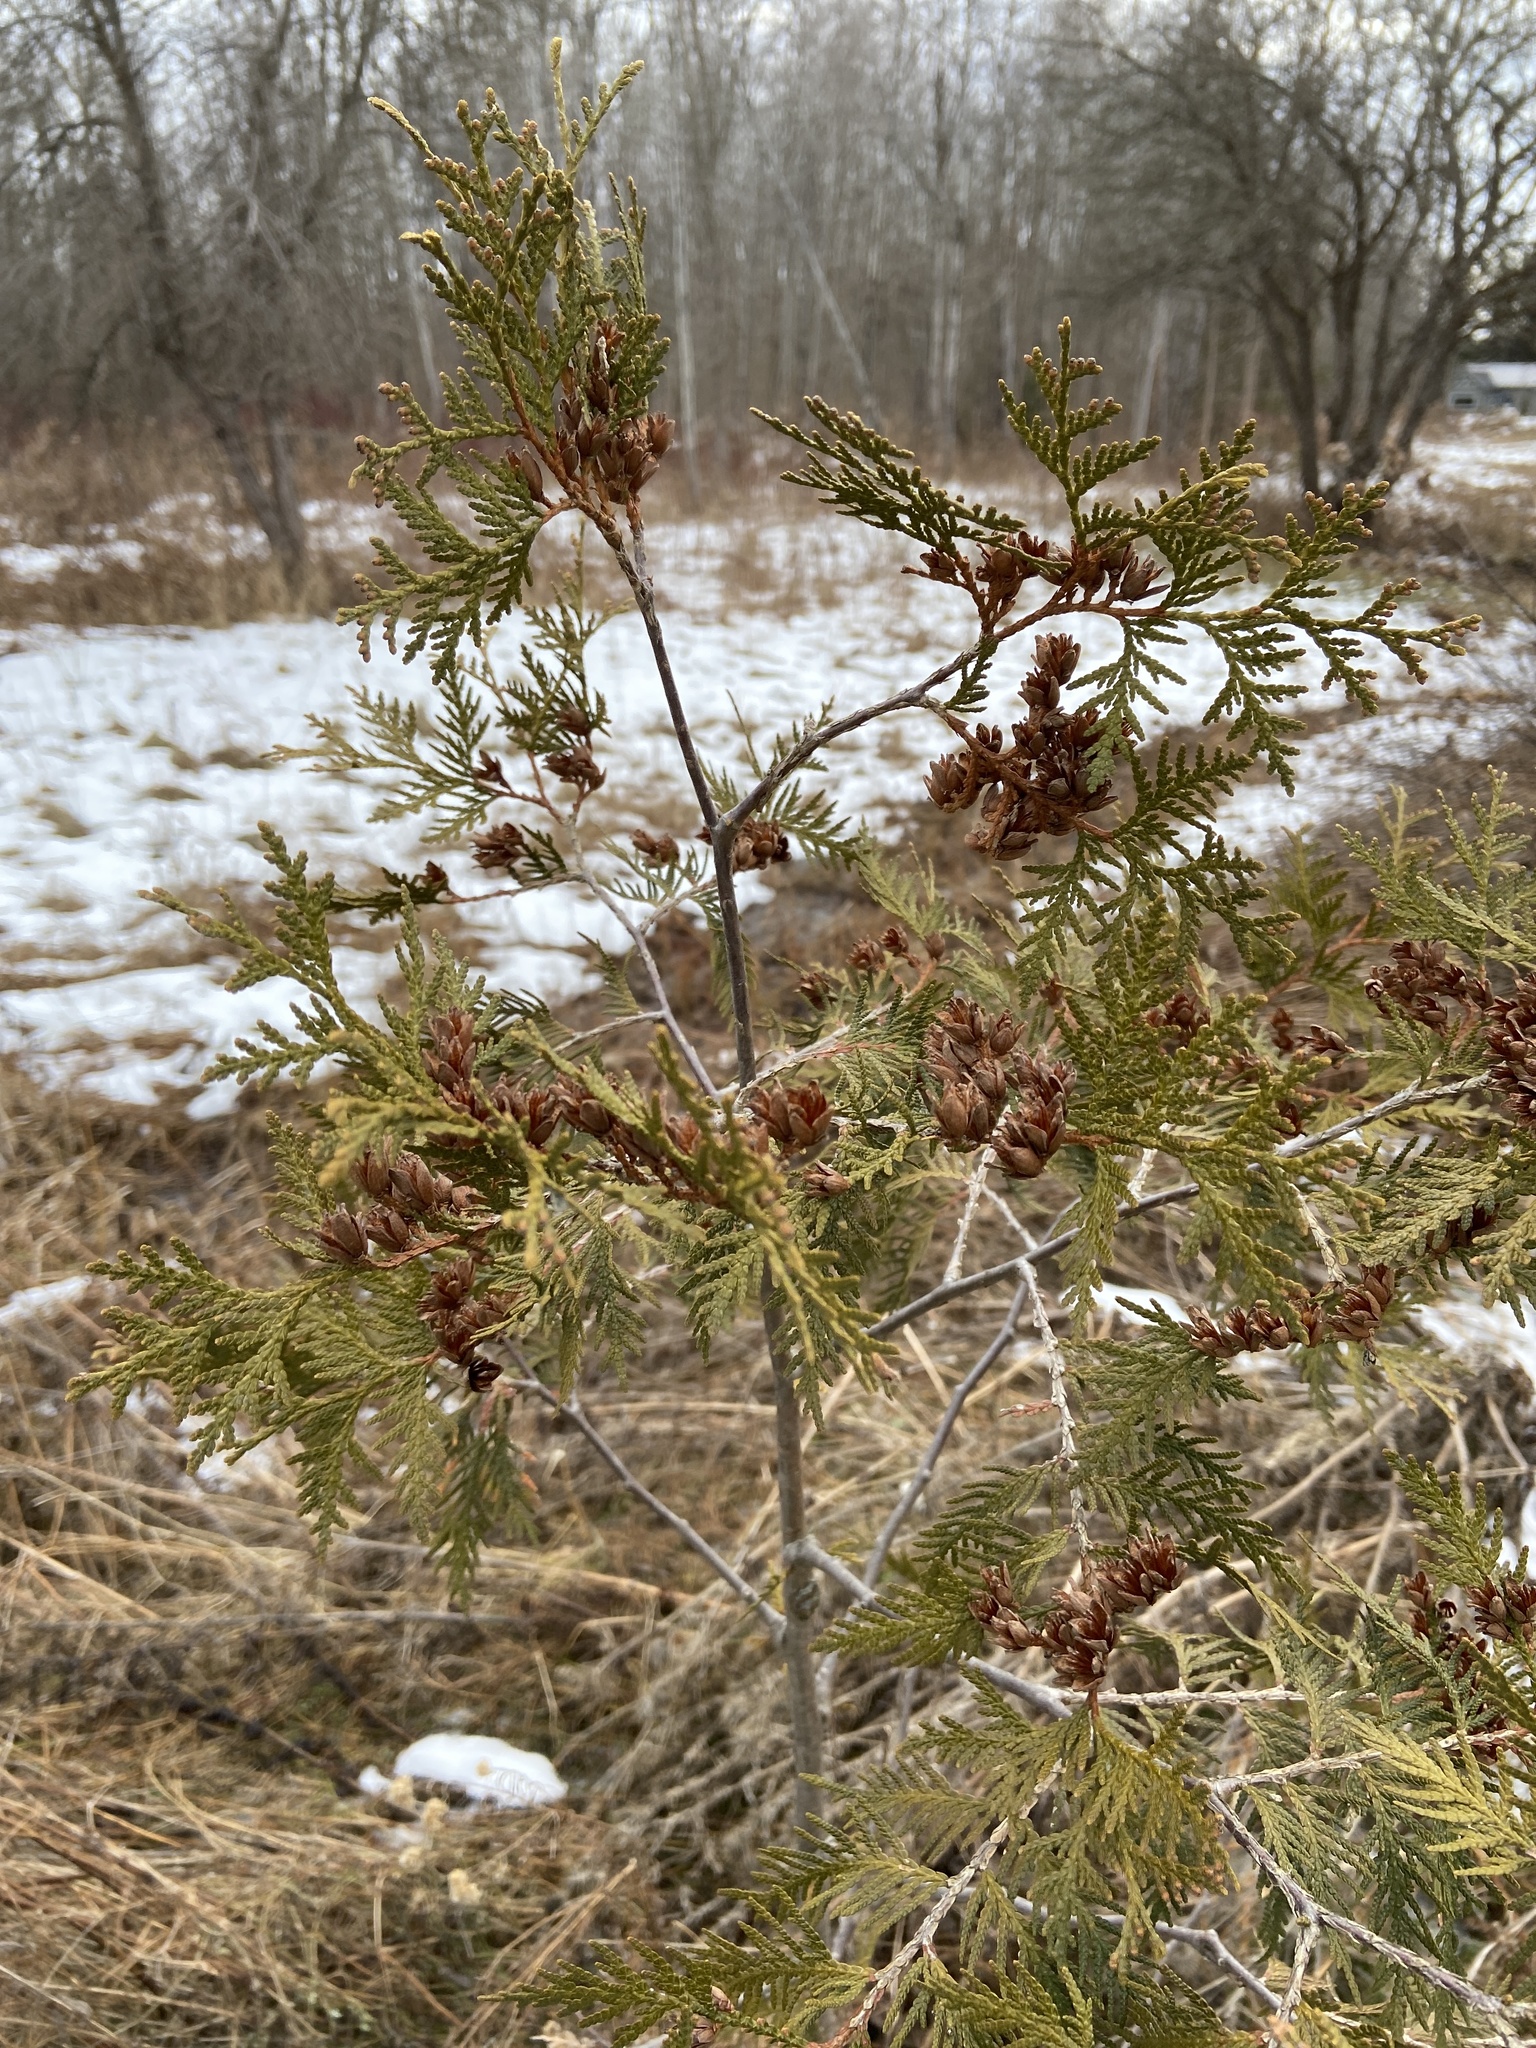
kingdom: Plantae
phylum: Tracheophyta
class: Pinopsida
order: Pinales
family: Cupressaceae
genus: Thuja
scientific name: Thuja occidentalis
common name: Northern white-cedar
